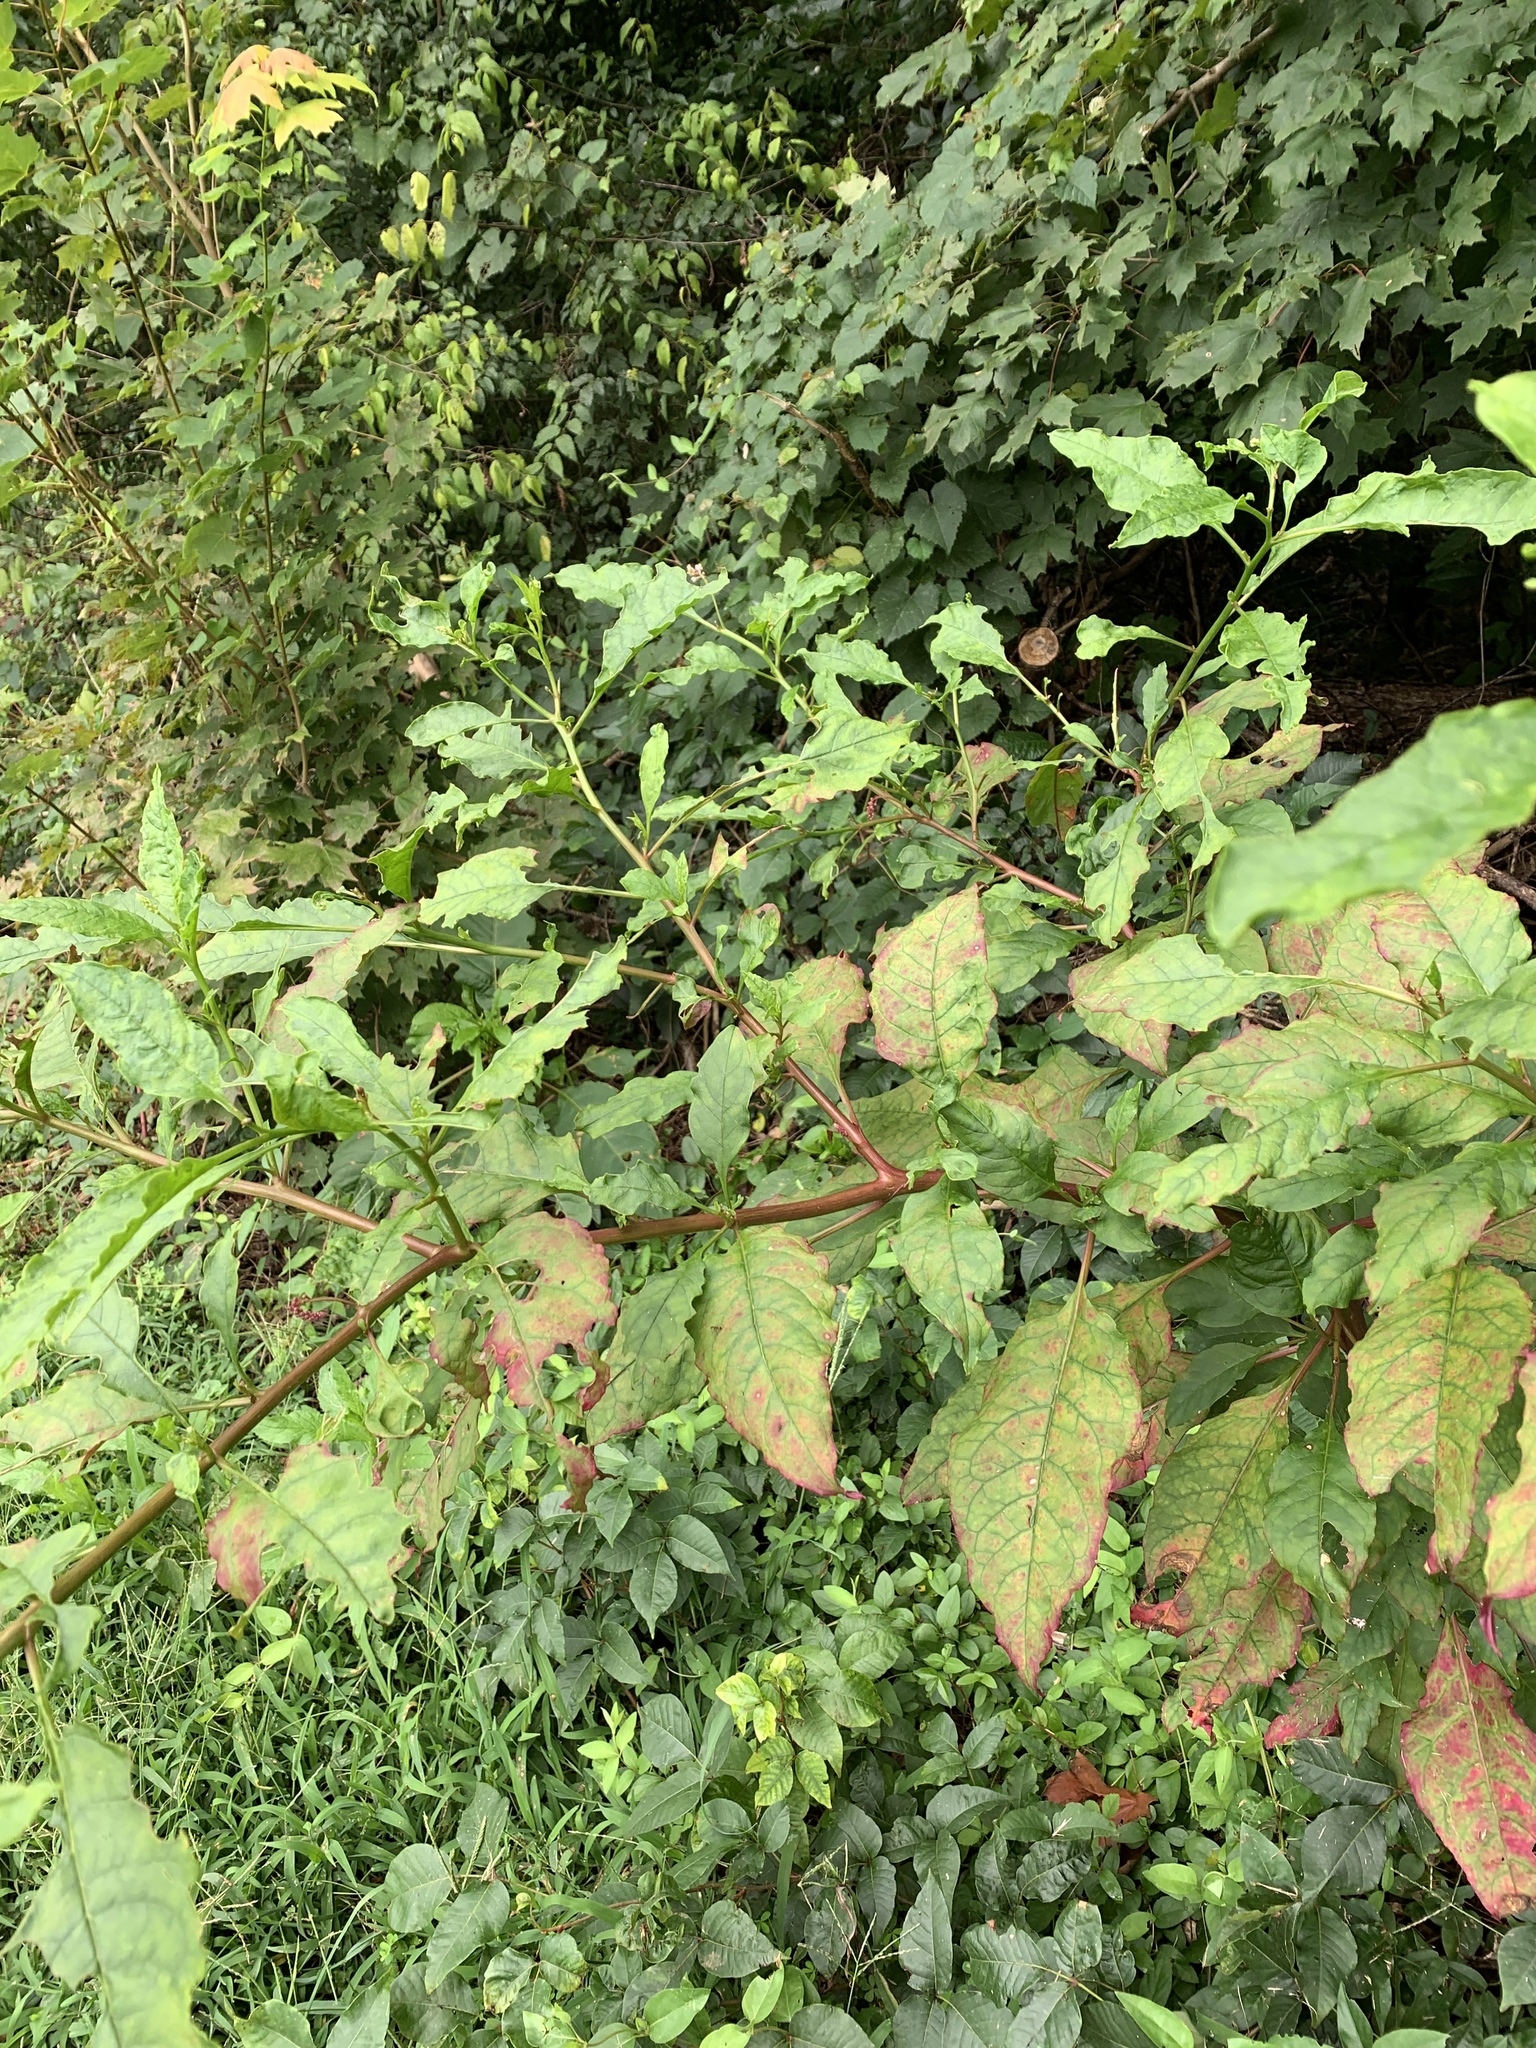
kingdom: Plantae
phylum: Tracheophyta
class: Magnoliopsida
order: Caryophyllales
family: Phytolaccaceae
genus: Phytolacca
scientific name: Phytolacca americana
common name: American pokeweed
